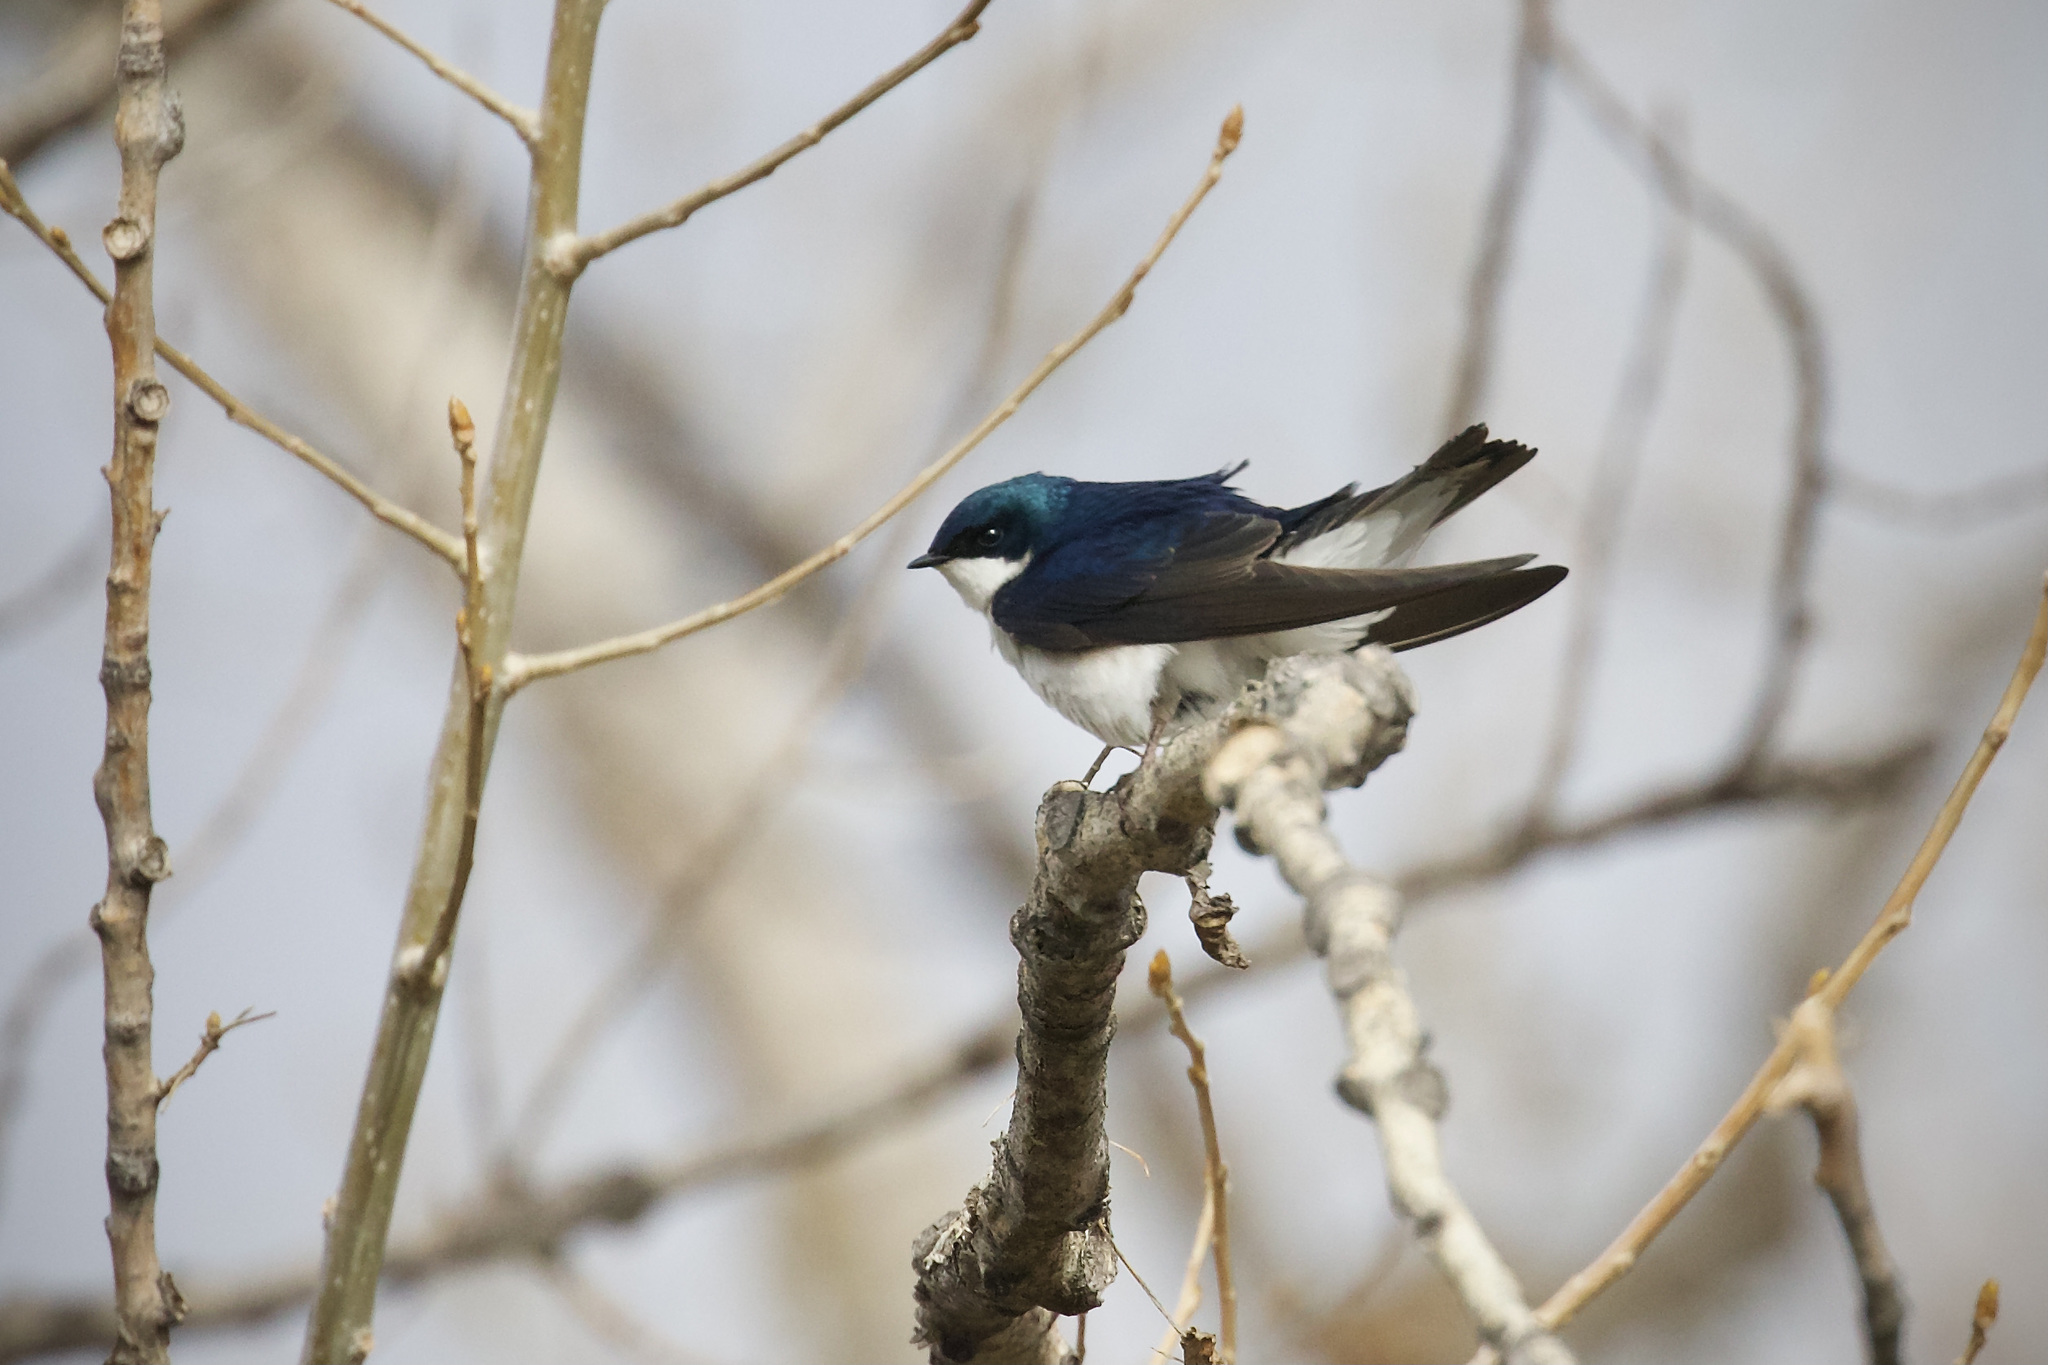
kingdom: Animalia
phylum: Chordata
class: Aves
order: Passeriformes
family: Hirundinidae
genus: Tachycineta
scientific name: Tachycineta bicolor
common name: Tree swallow
